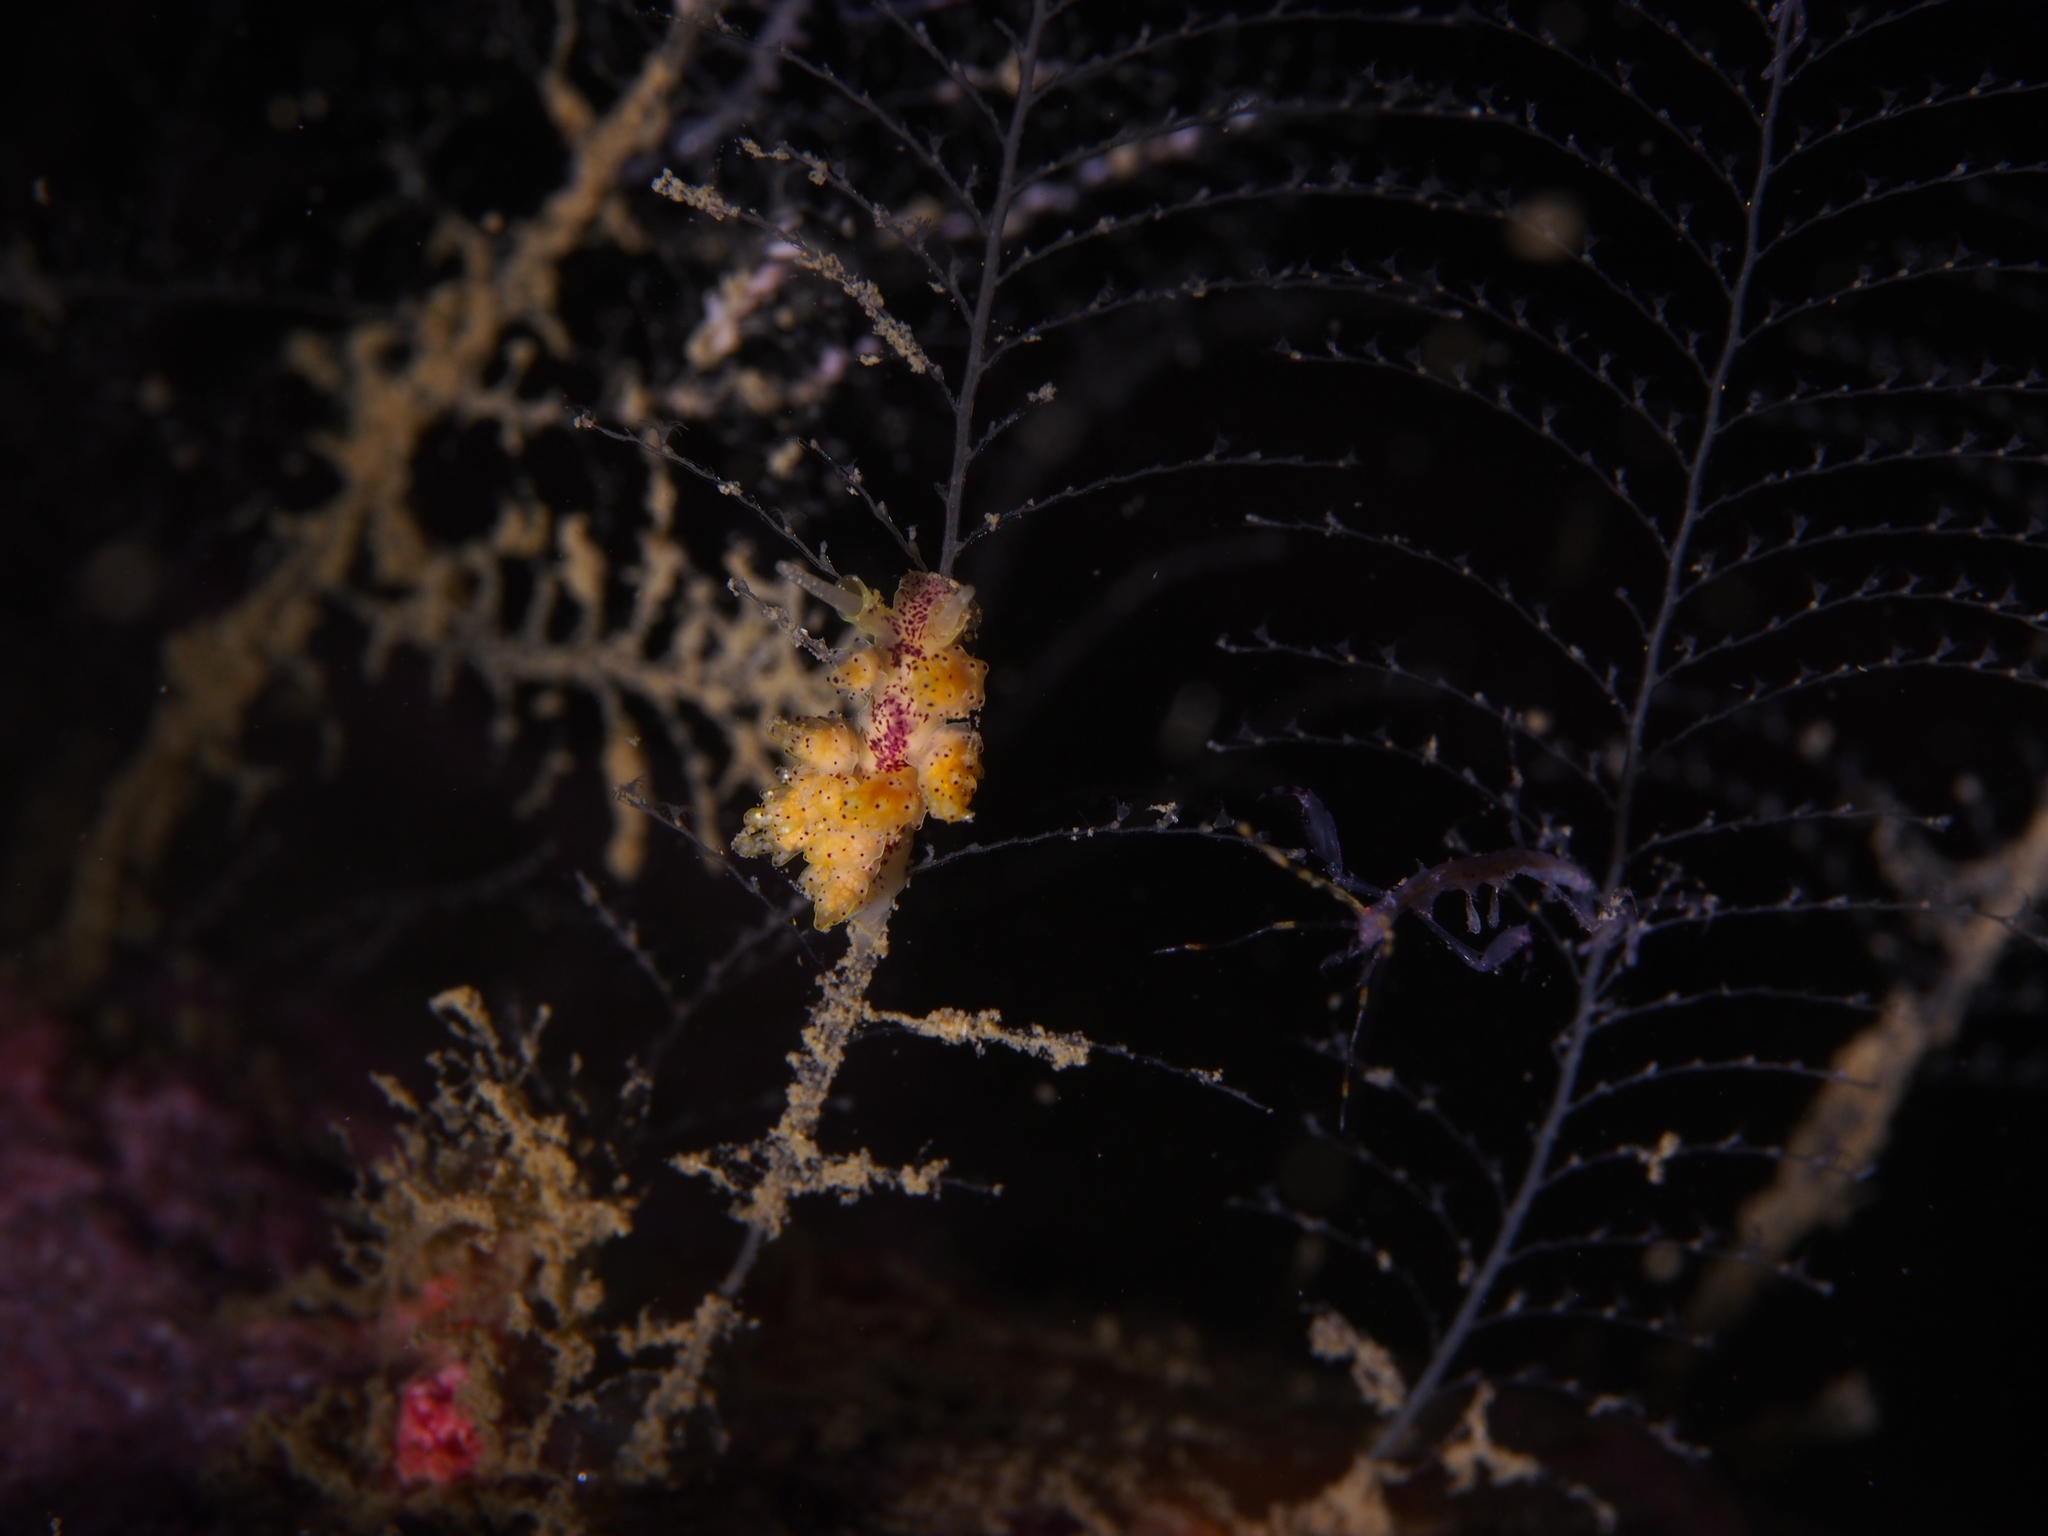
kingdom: Animalia
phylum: Mollusca
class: Gastropoda
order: Nudibranchia
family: Dotidae
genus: Doto
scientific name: Doto dunnei
